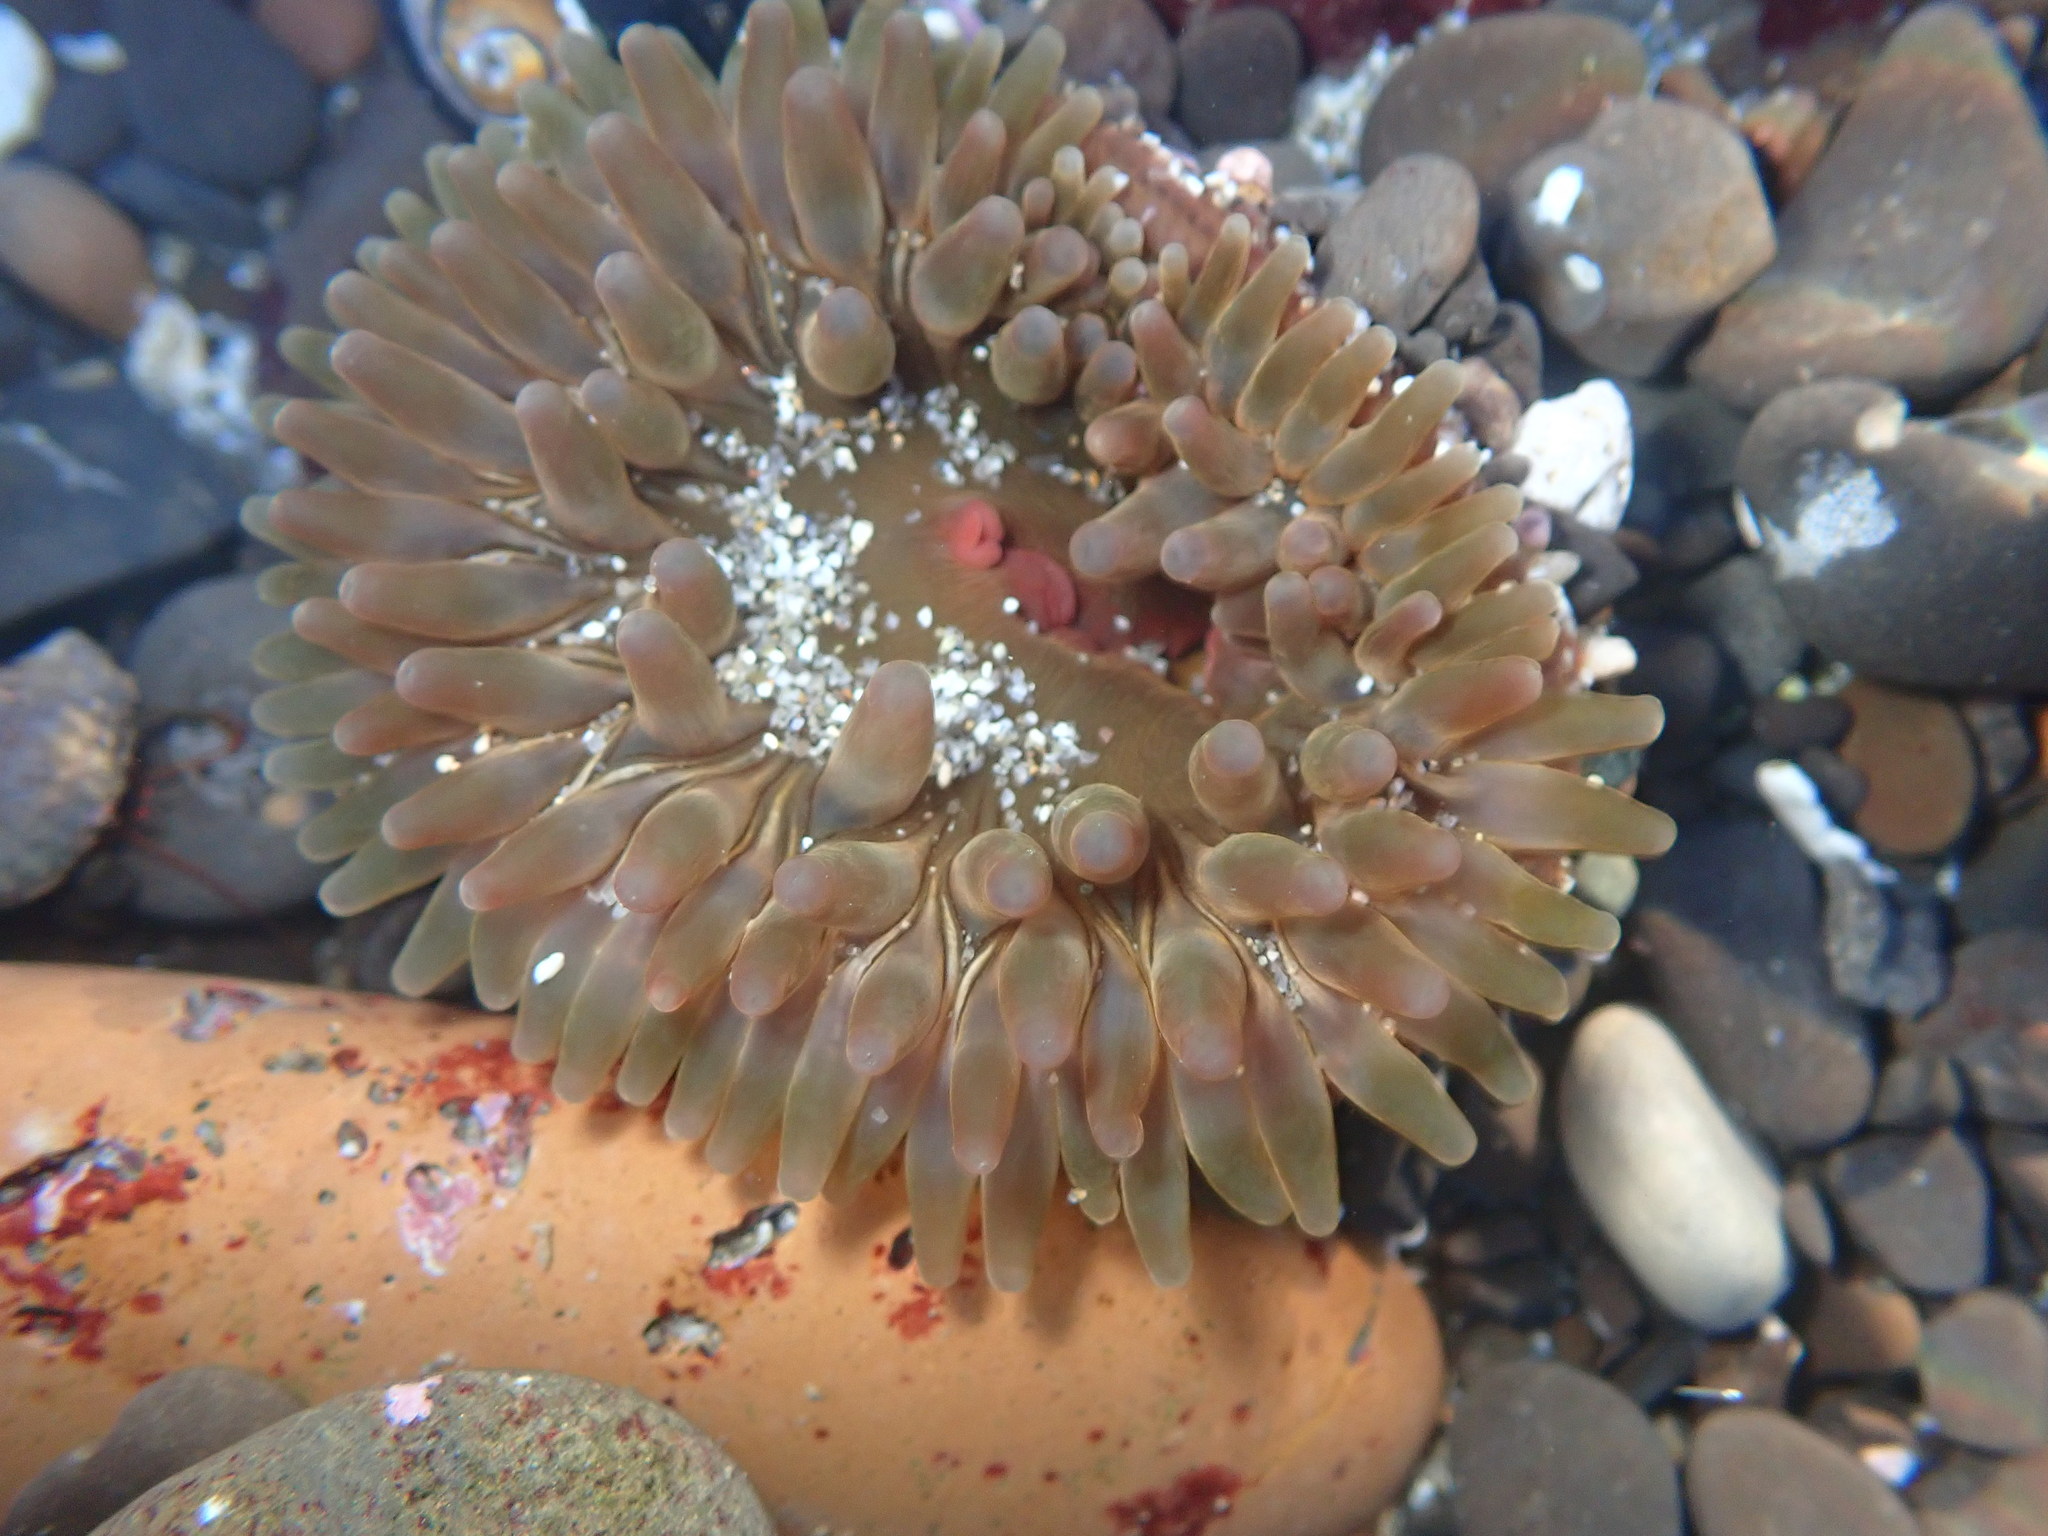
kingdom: Animalia
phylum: Cnidaria
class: Anthozoa
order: Actiniaria
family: Actiniidae
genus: Urticina
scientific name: Urticina clandestina
